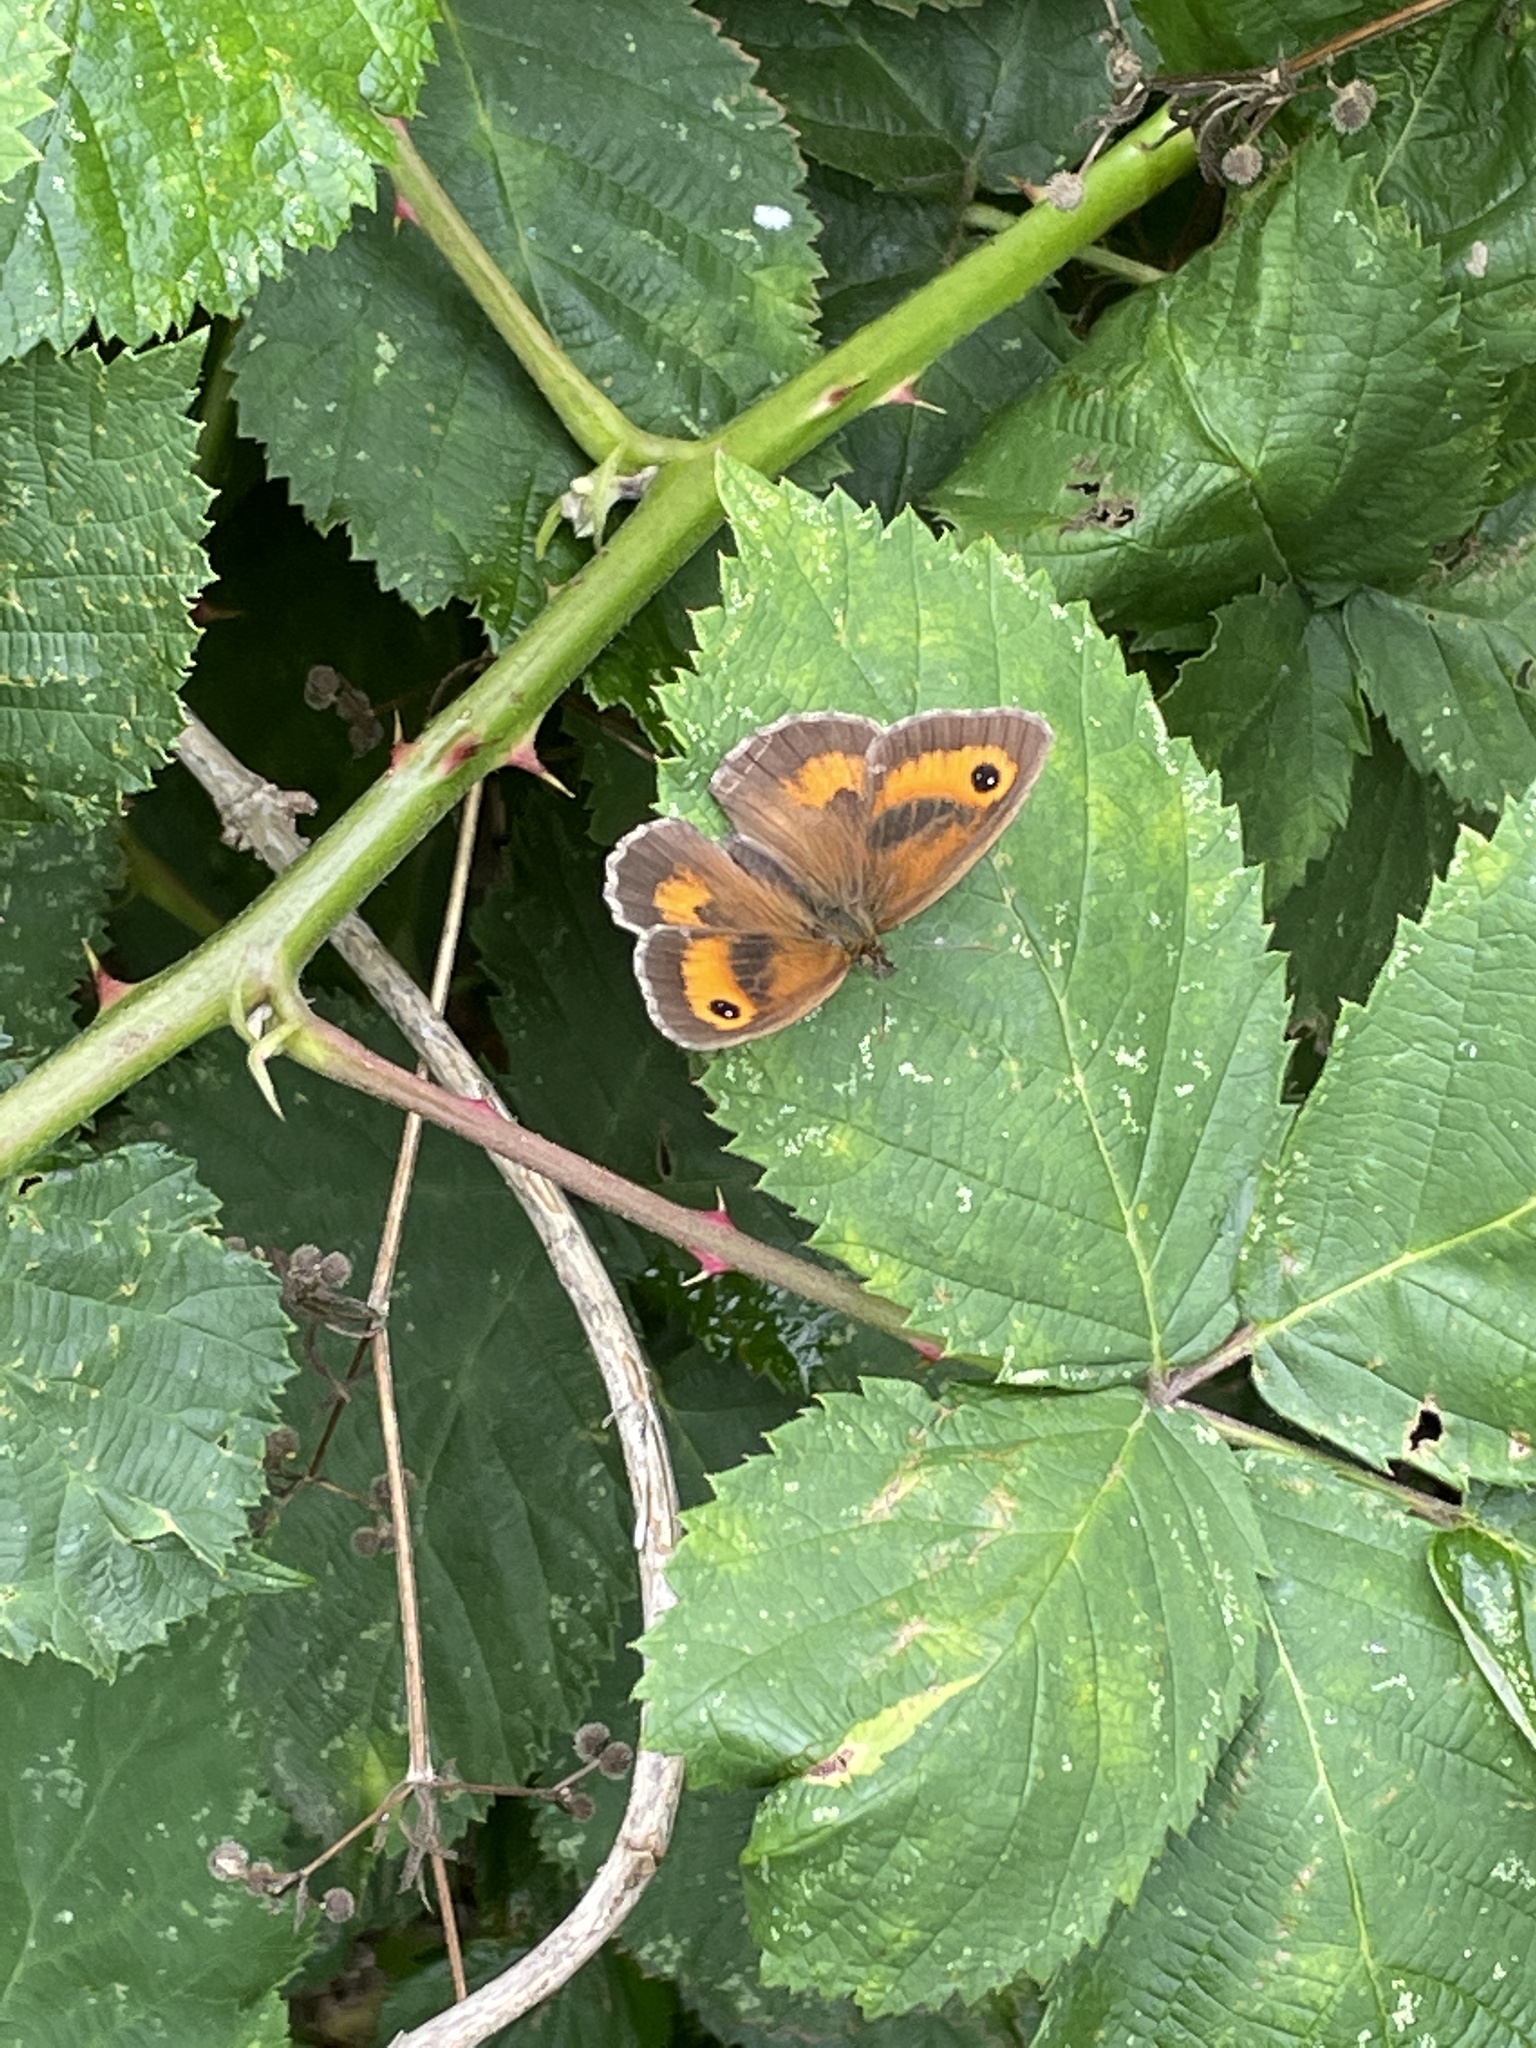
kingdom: Animalia
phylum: Arthropoda
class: Insecta
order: Lepidoptera
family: Nymphalidae
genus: Pyronia
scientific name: Pyronia tithonus
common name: Gatekeeper
